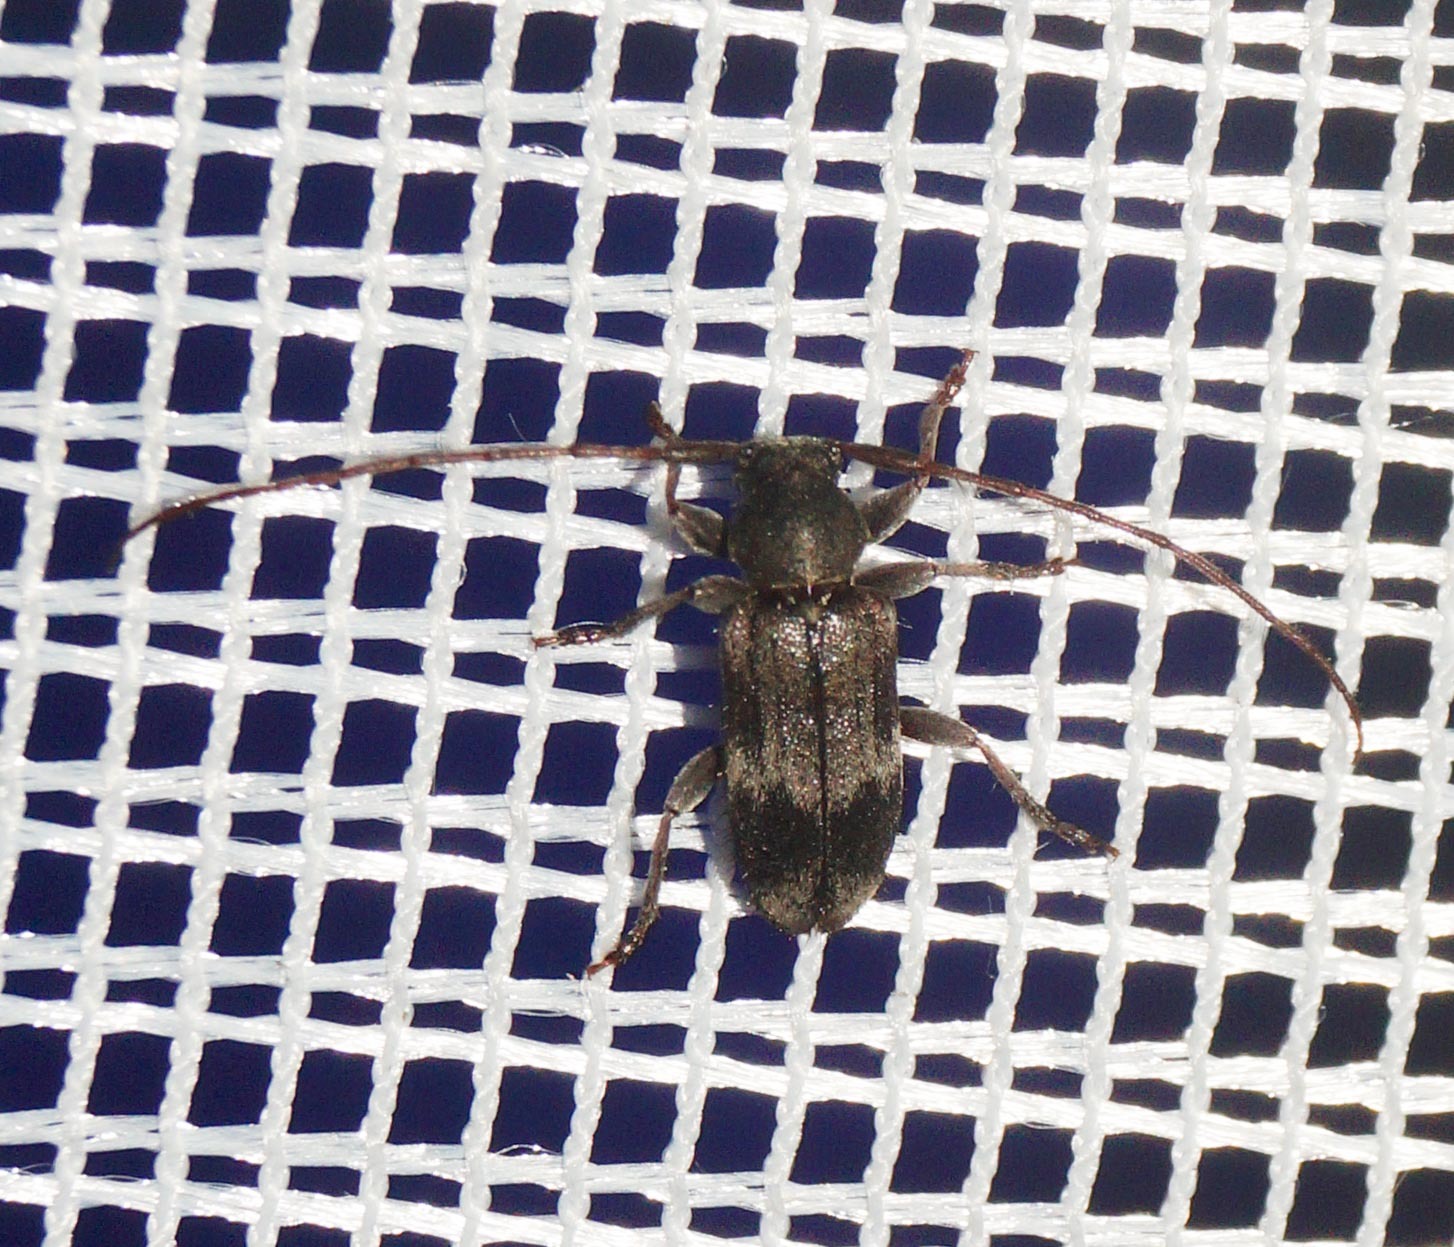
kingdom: Animalia
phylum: Arthropoda
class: Insecta
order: Coleoptera
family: Cerambycidae
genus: Exocentrus
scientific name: Exocentrus lusitanus
